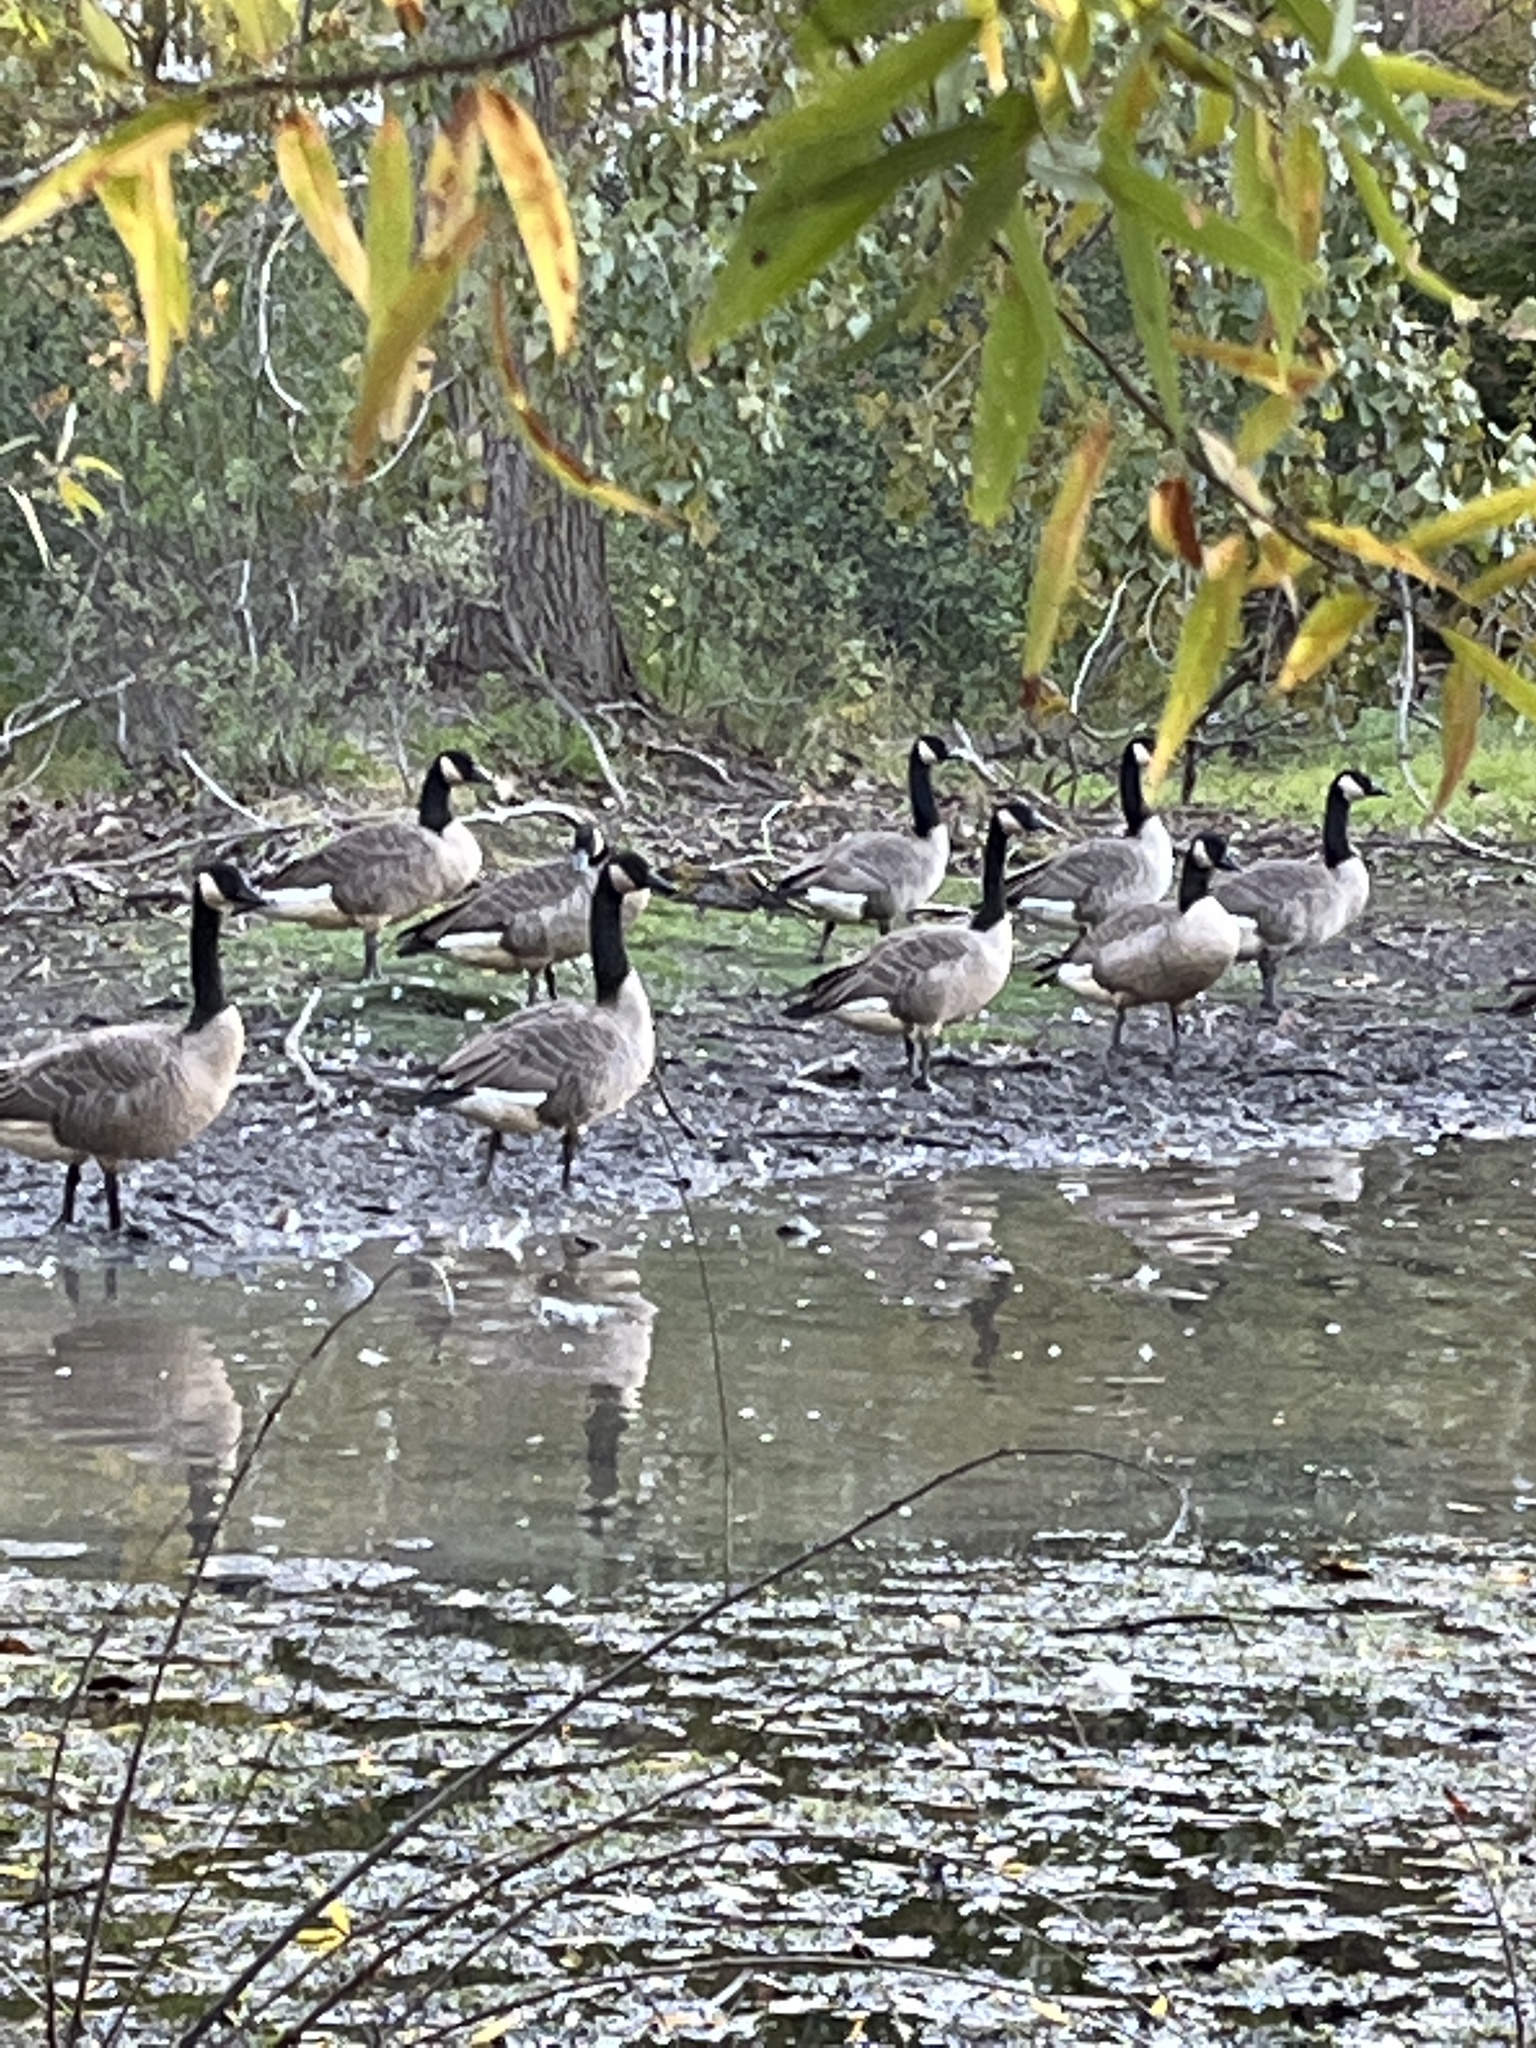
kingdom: Animalia
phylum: Chordata
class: Aves
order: Anseriformes
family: Anatidae
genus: Branta
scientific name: Branta canadensis
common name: Canada goose
